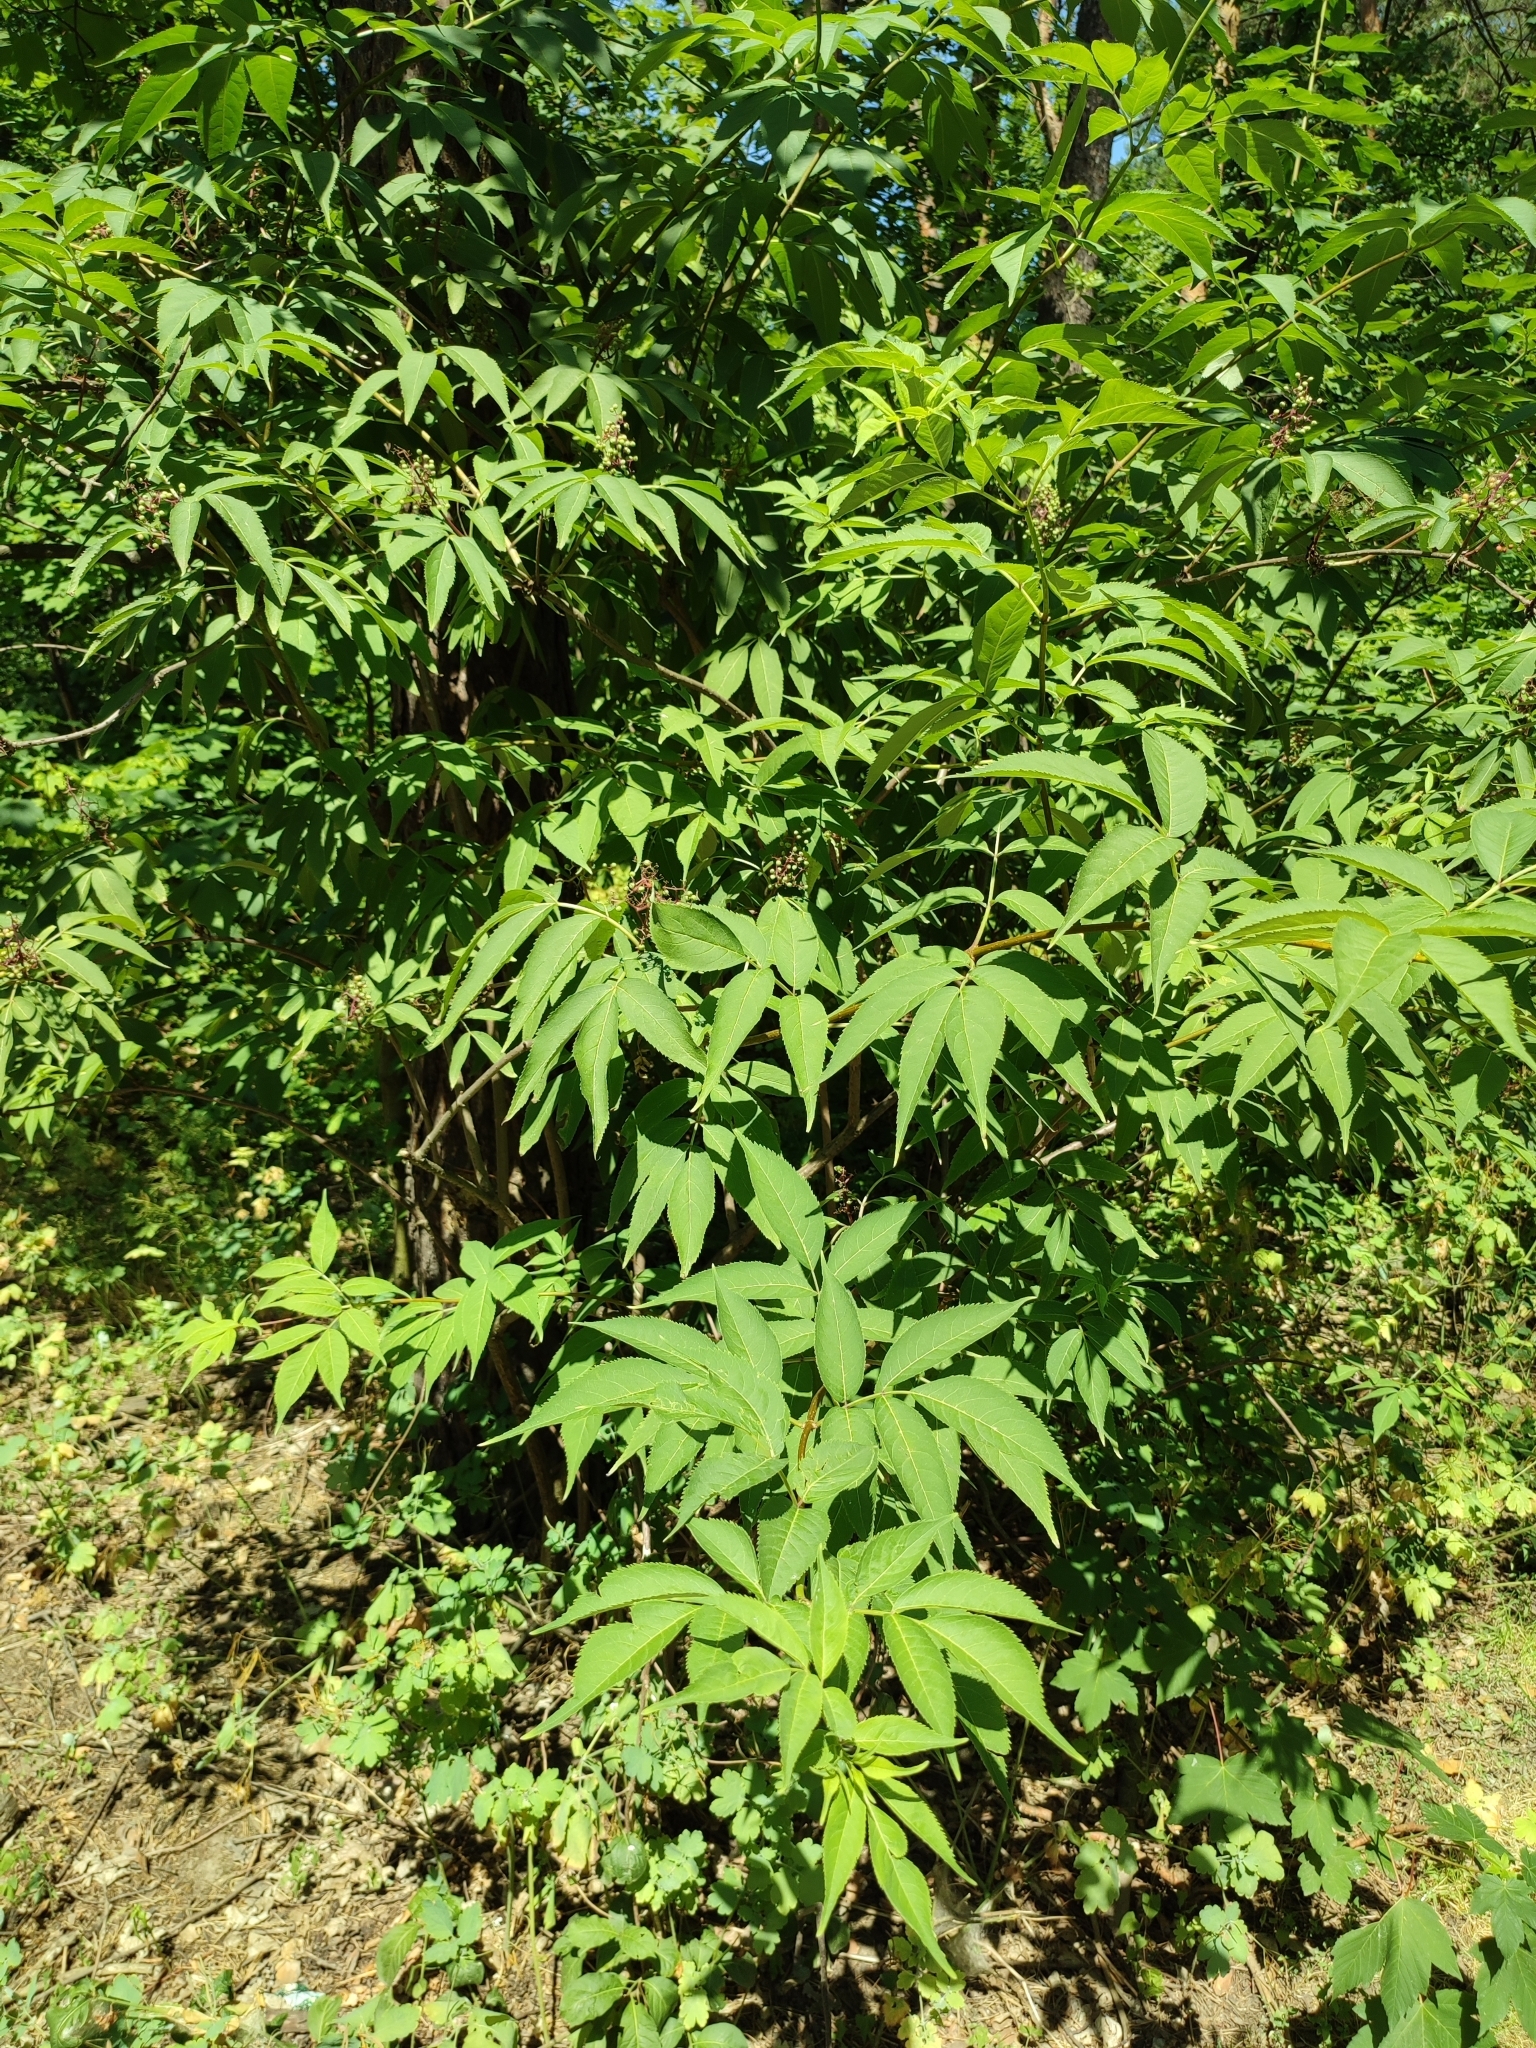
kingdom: Plantae
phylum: Tracheophyta
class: Magnoliopsida
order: Dipsacales
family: Viburnaceae
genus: Sambucus
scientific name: Sambucus racemosa
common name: Red-berried elder
